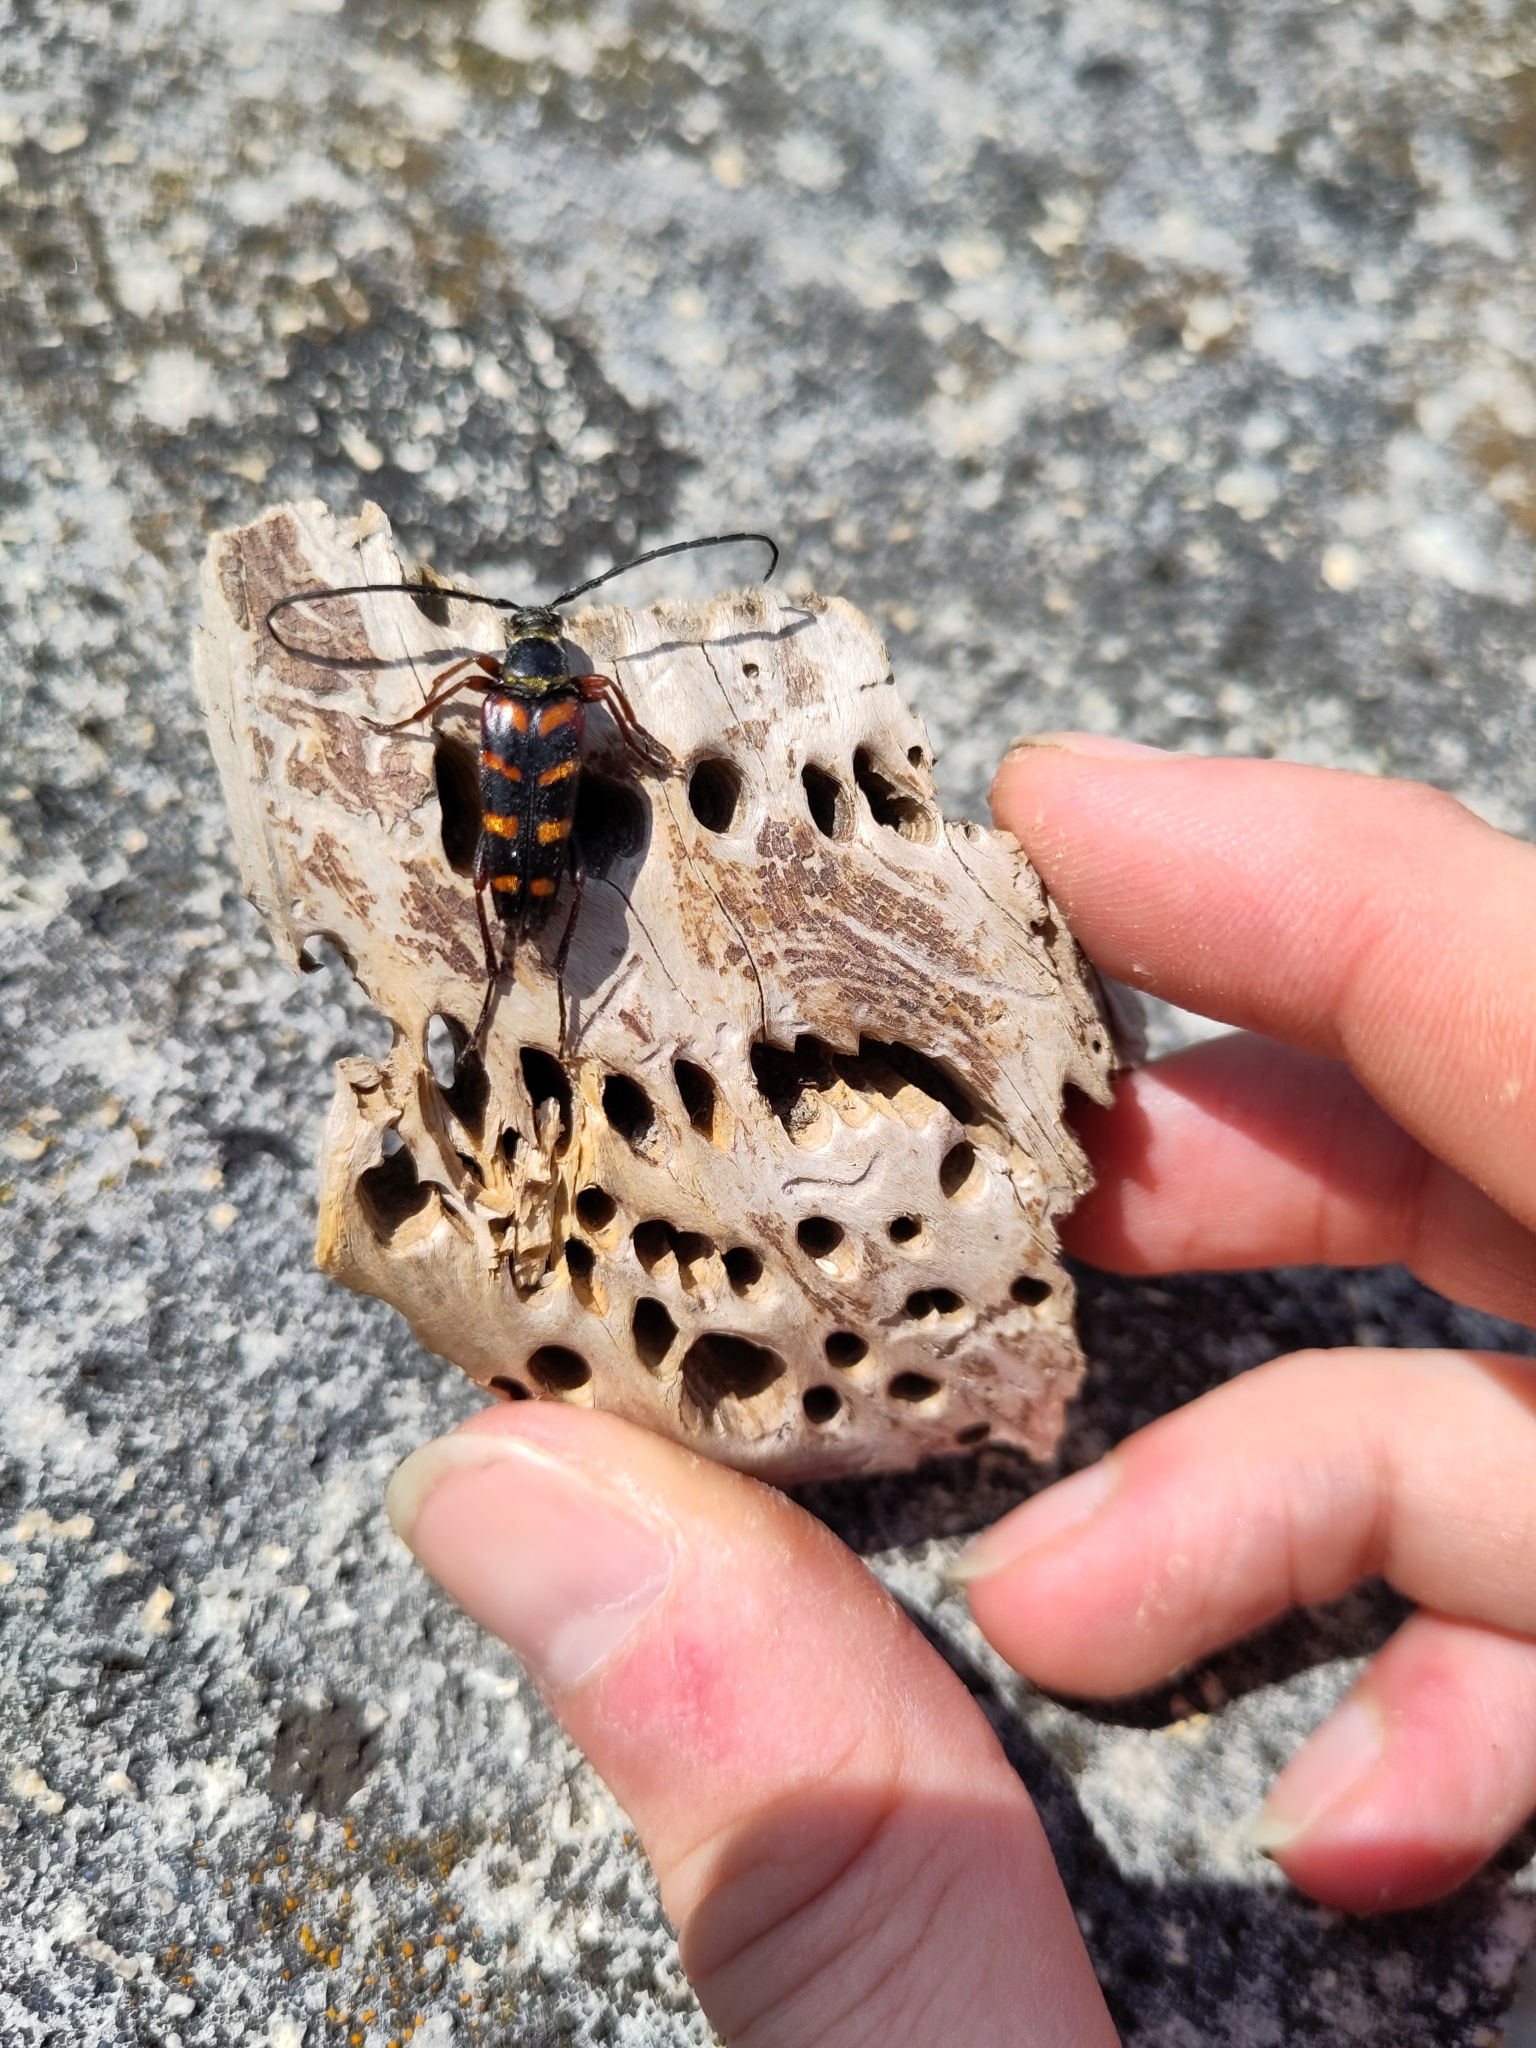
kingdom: Animalia
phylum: Arthropoda
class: Insecta
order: Coleoptera
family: Cerambycidae
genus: Leptura
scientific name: Leptura aurulenta
